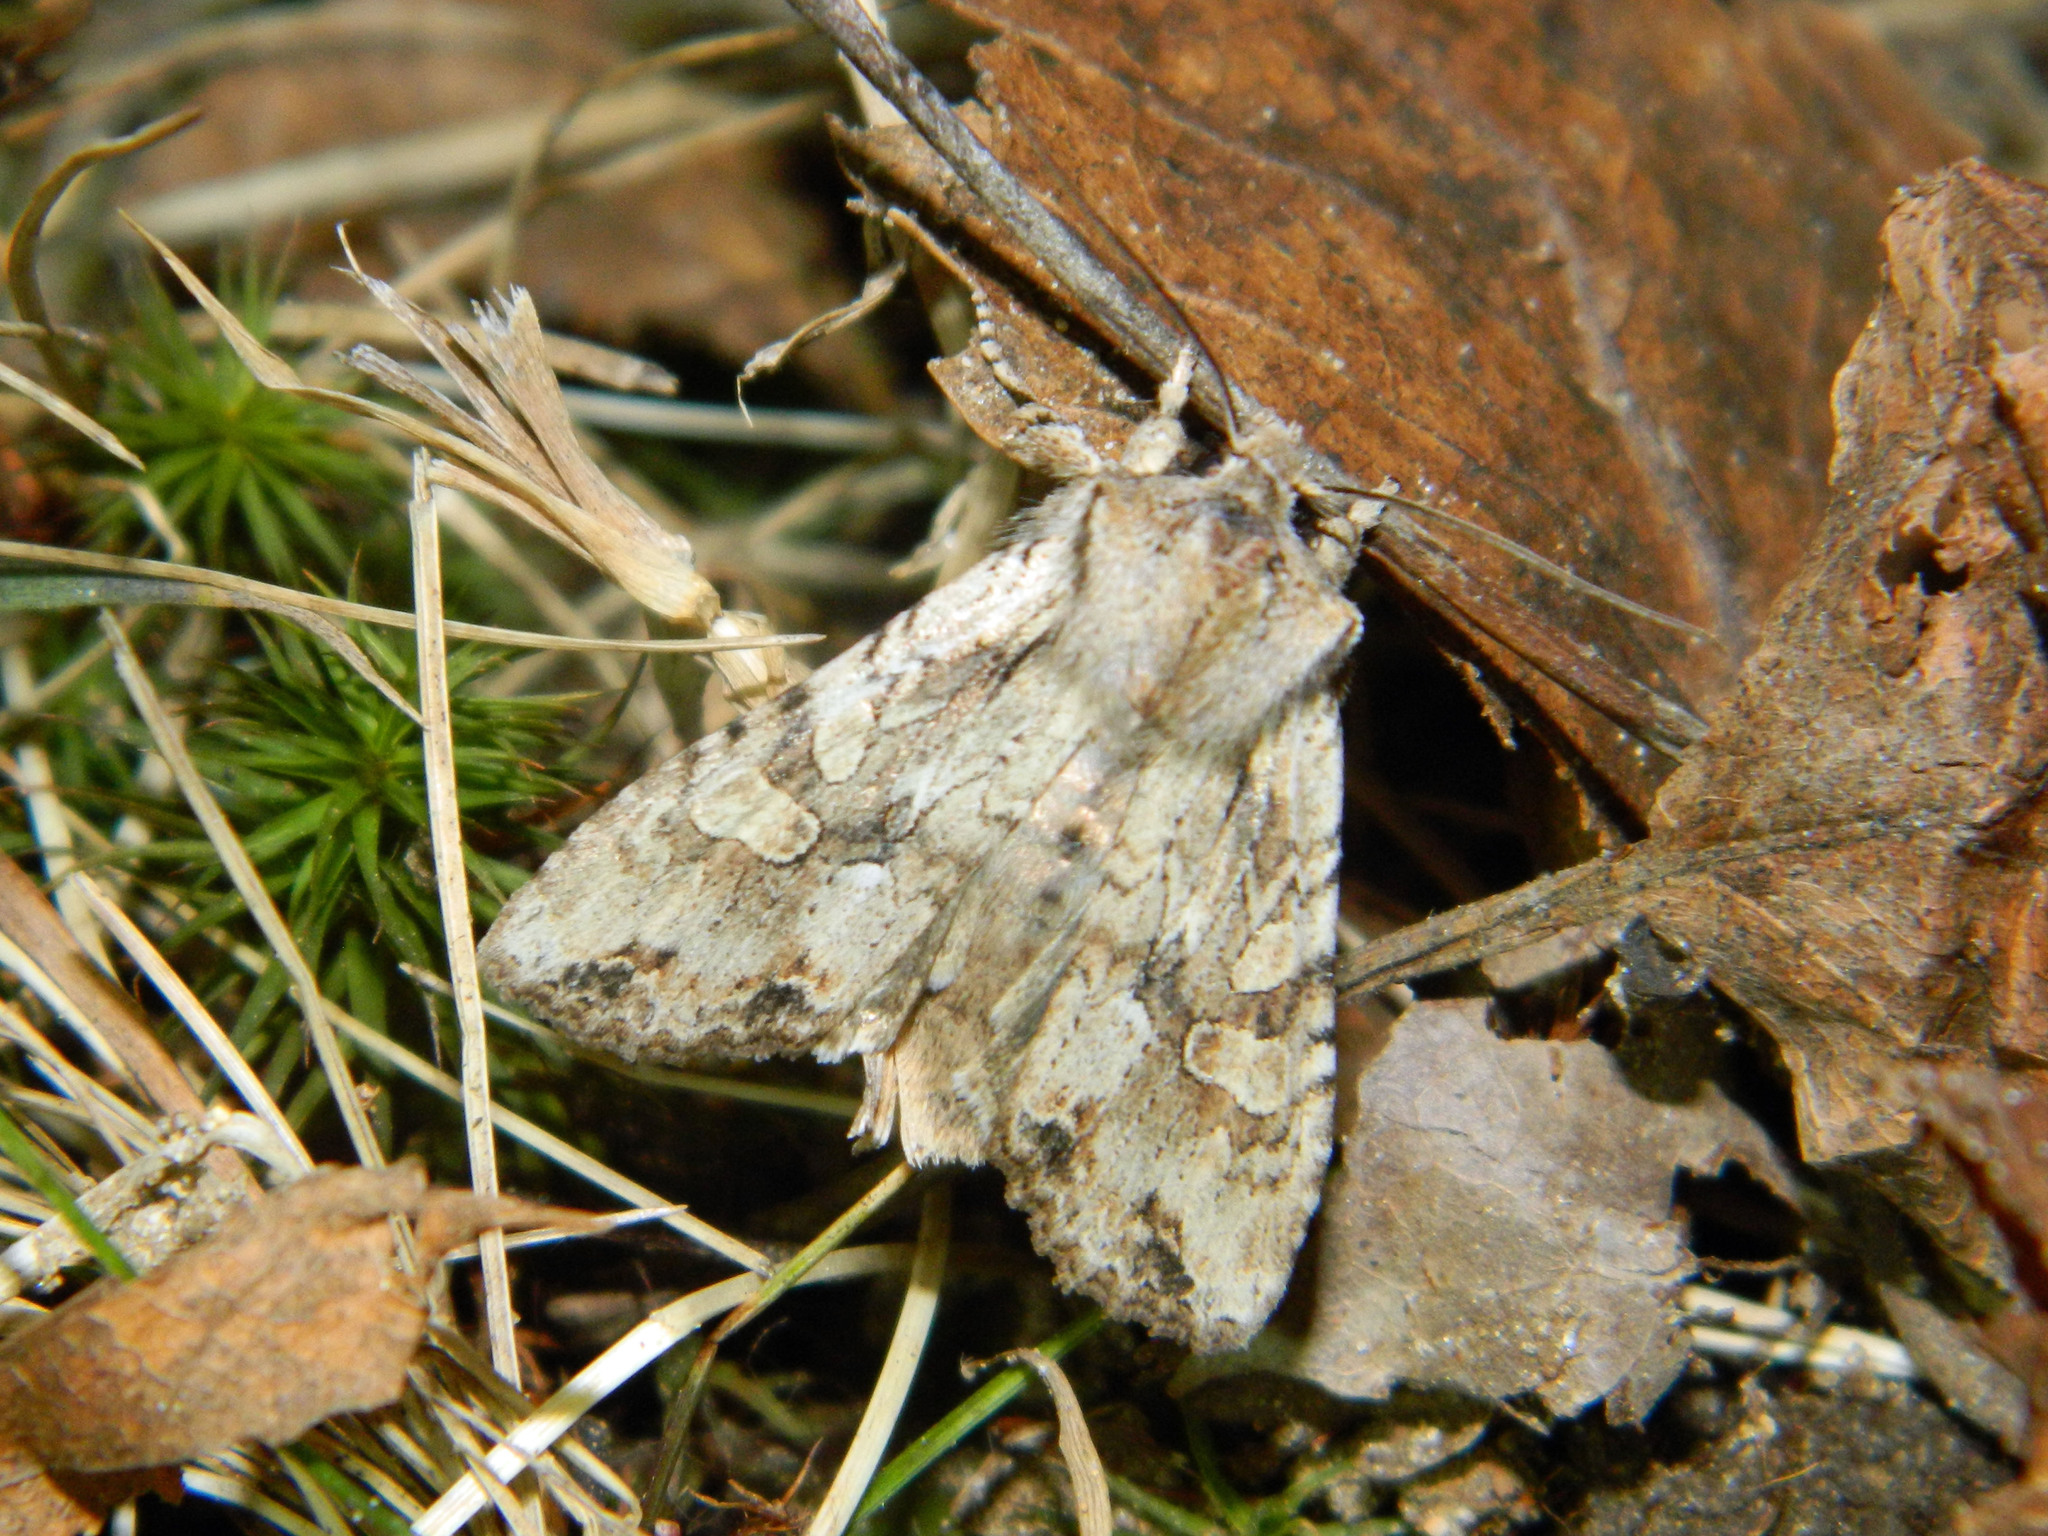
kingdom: Animalia
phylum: Arthropoda
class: Insecta
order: Lepidoptera
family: Noctuidae
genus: Lithophane
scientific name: Lithophane disposita
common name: Dashed gray pinion moth
